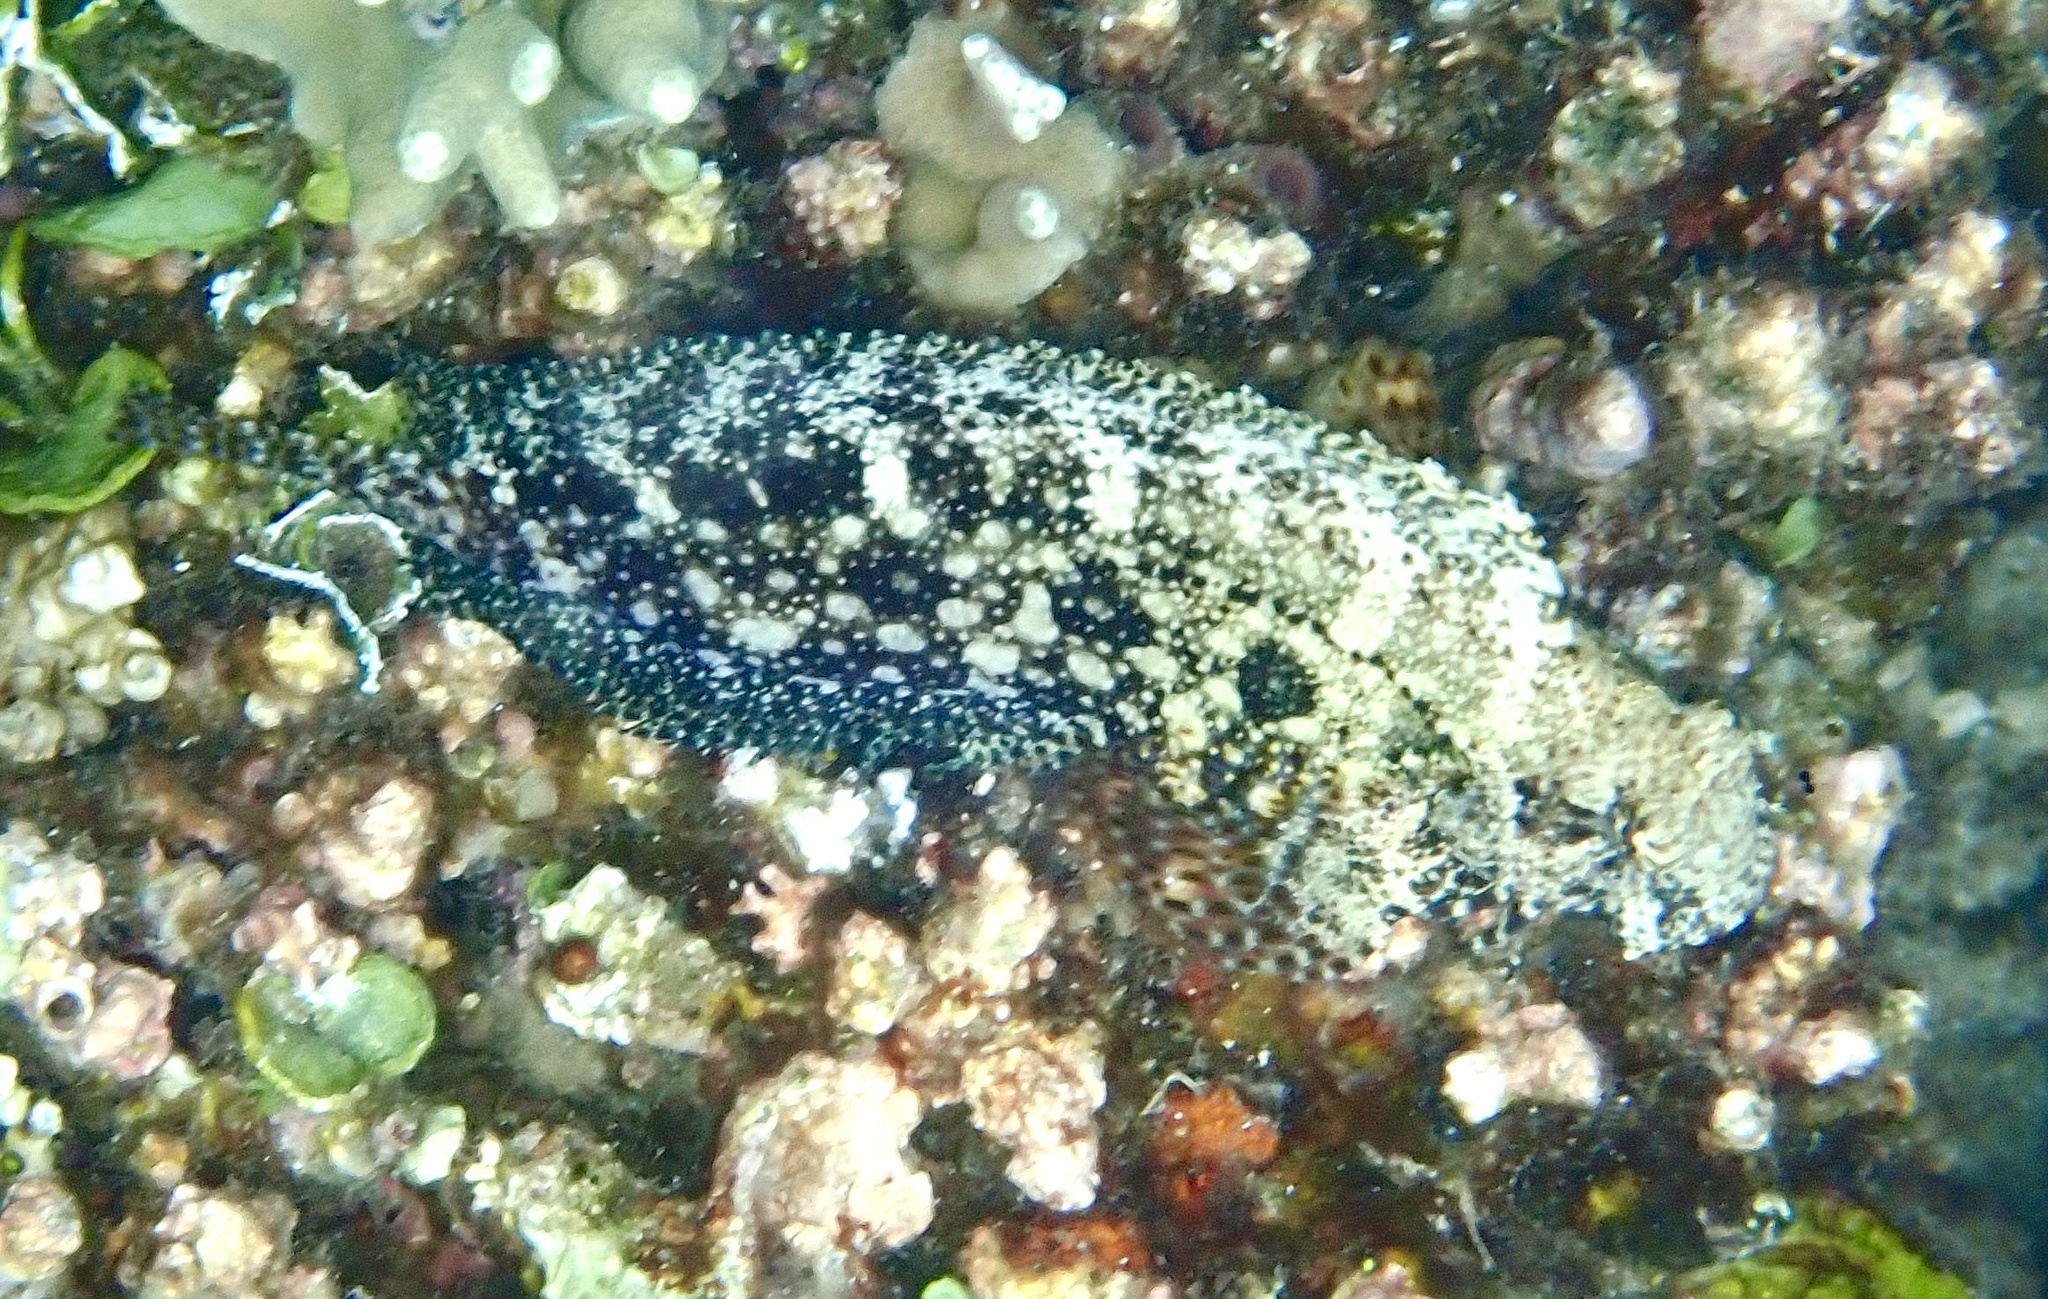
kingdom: Animalia
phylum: Chordata
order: Perciformes
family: Blenniidae
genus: Salarias
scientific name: Salarias ceramensis
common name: Seram blenny
